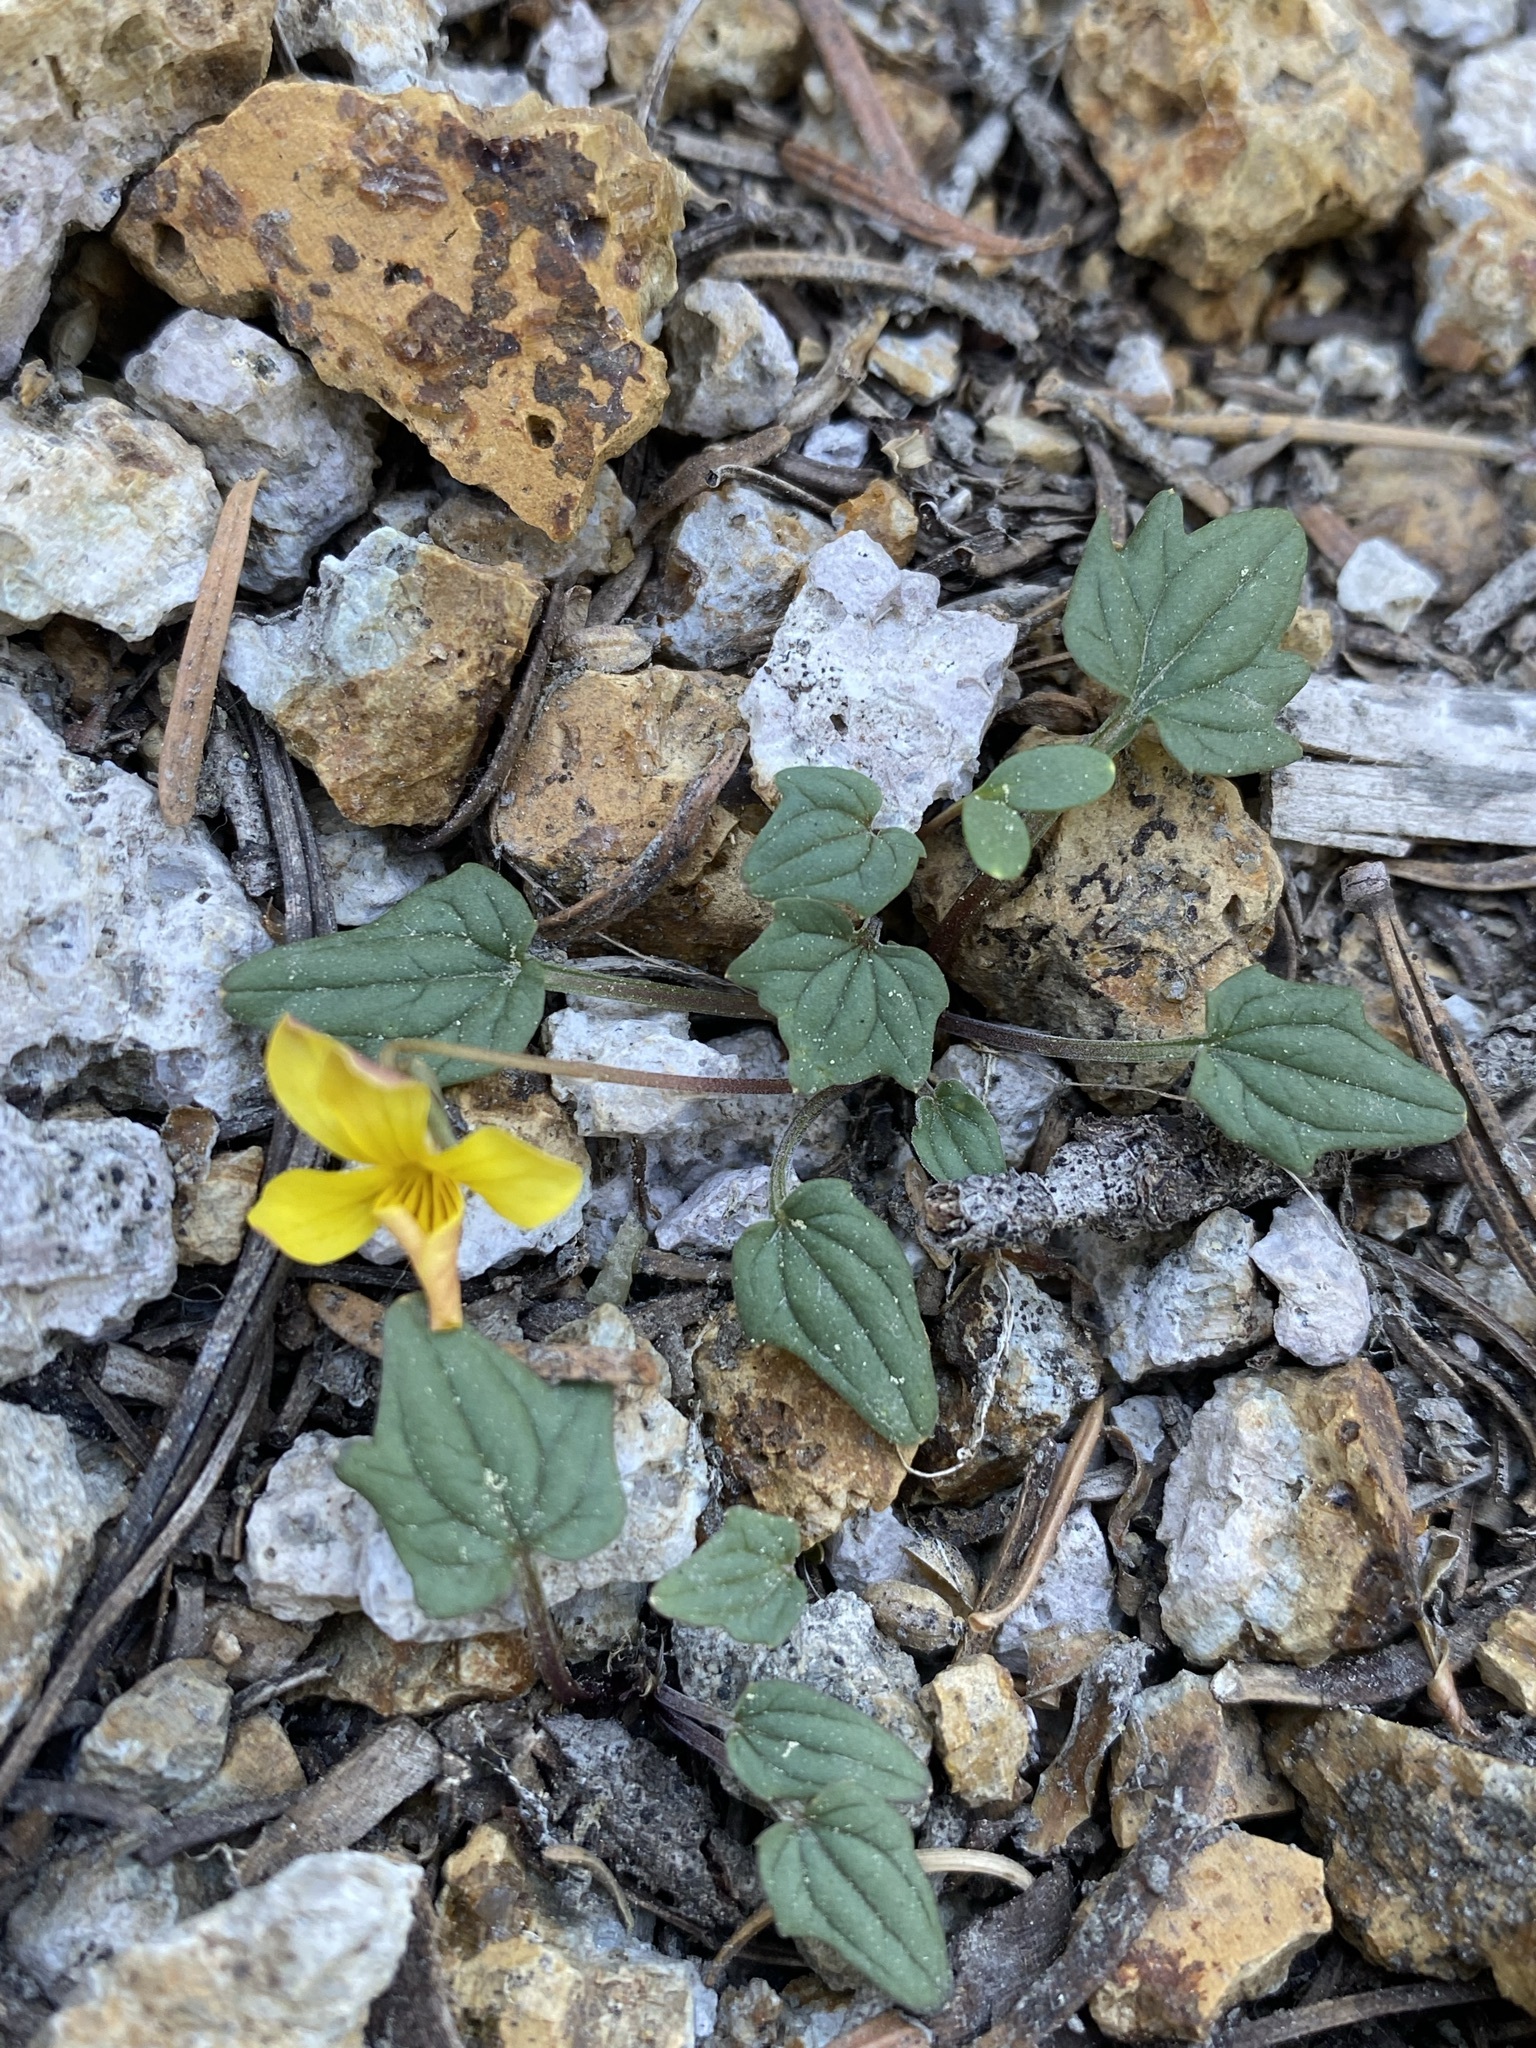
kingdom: Plantae
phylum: Tracheophyta
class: Magnoliopsida
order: Malpighiales
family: Violaceae
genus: Viola
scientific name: Viola purpurea
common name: Pine violet
